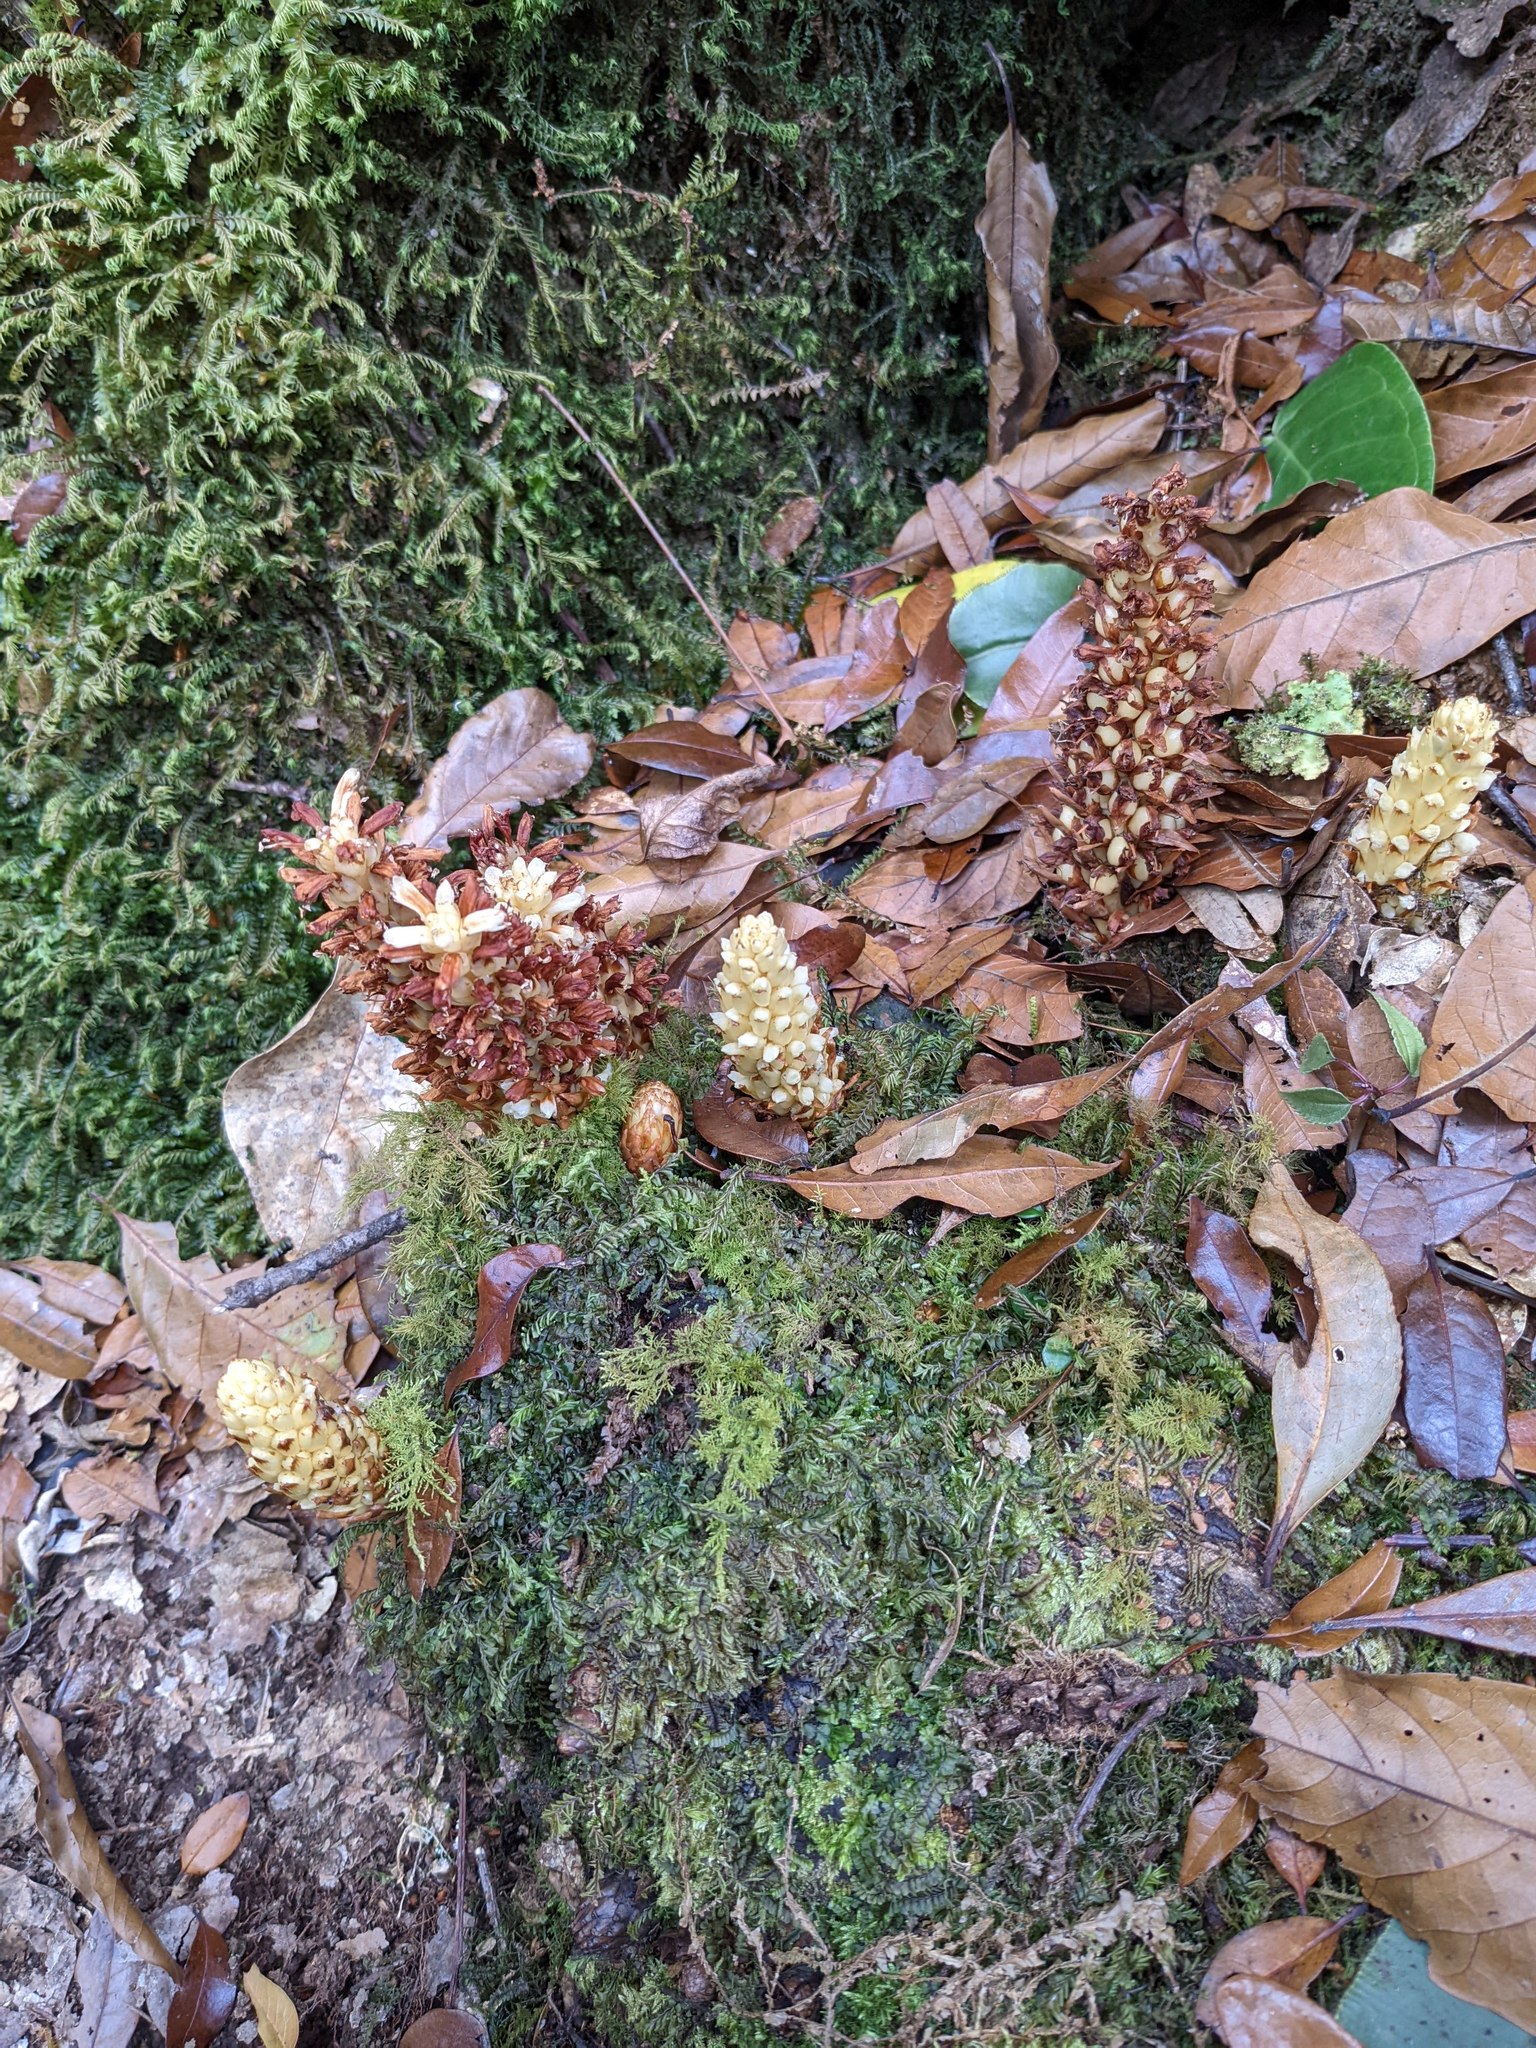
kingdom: Plantae
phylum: Tracheophyta
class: Magnoliopsida
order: Lamiales
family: Orobanchaceae
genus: Conopholis
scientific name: Conopholis panamensis
